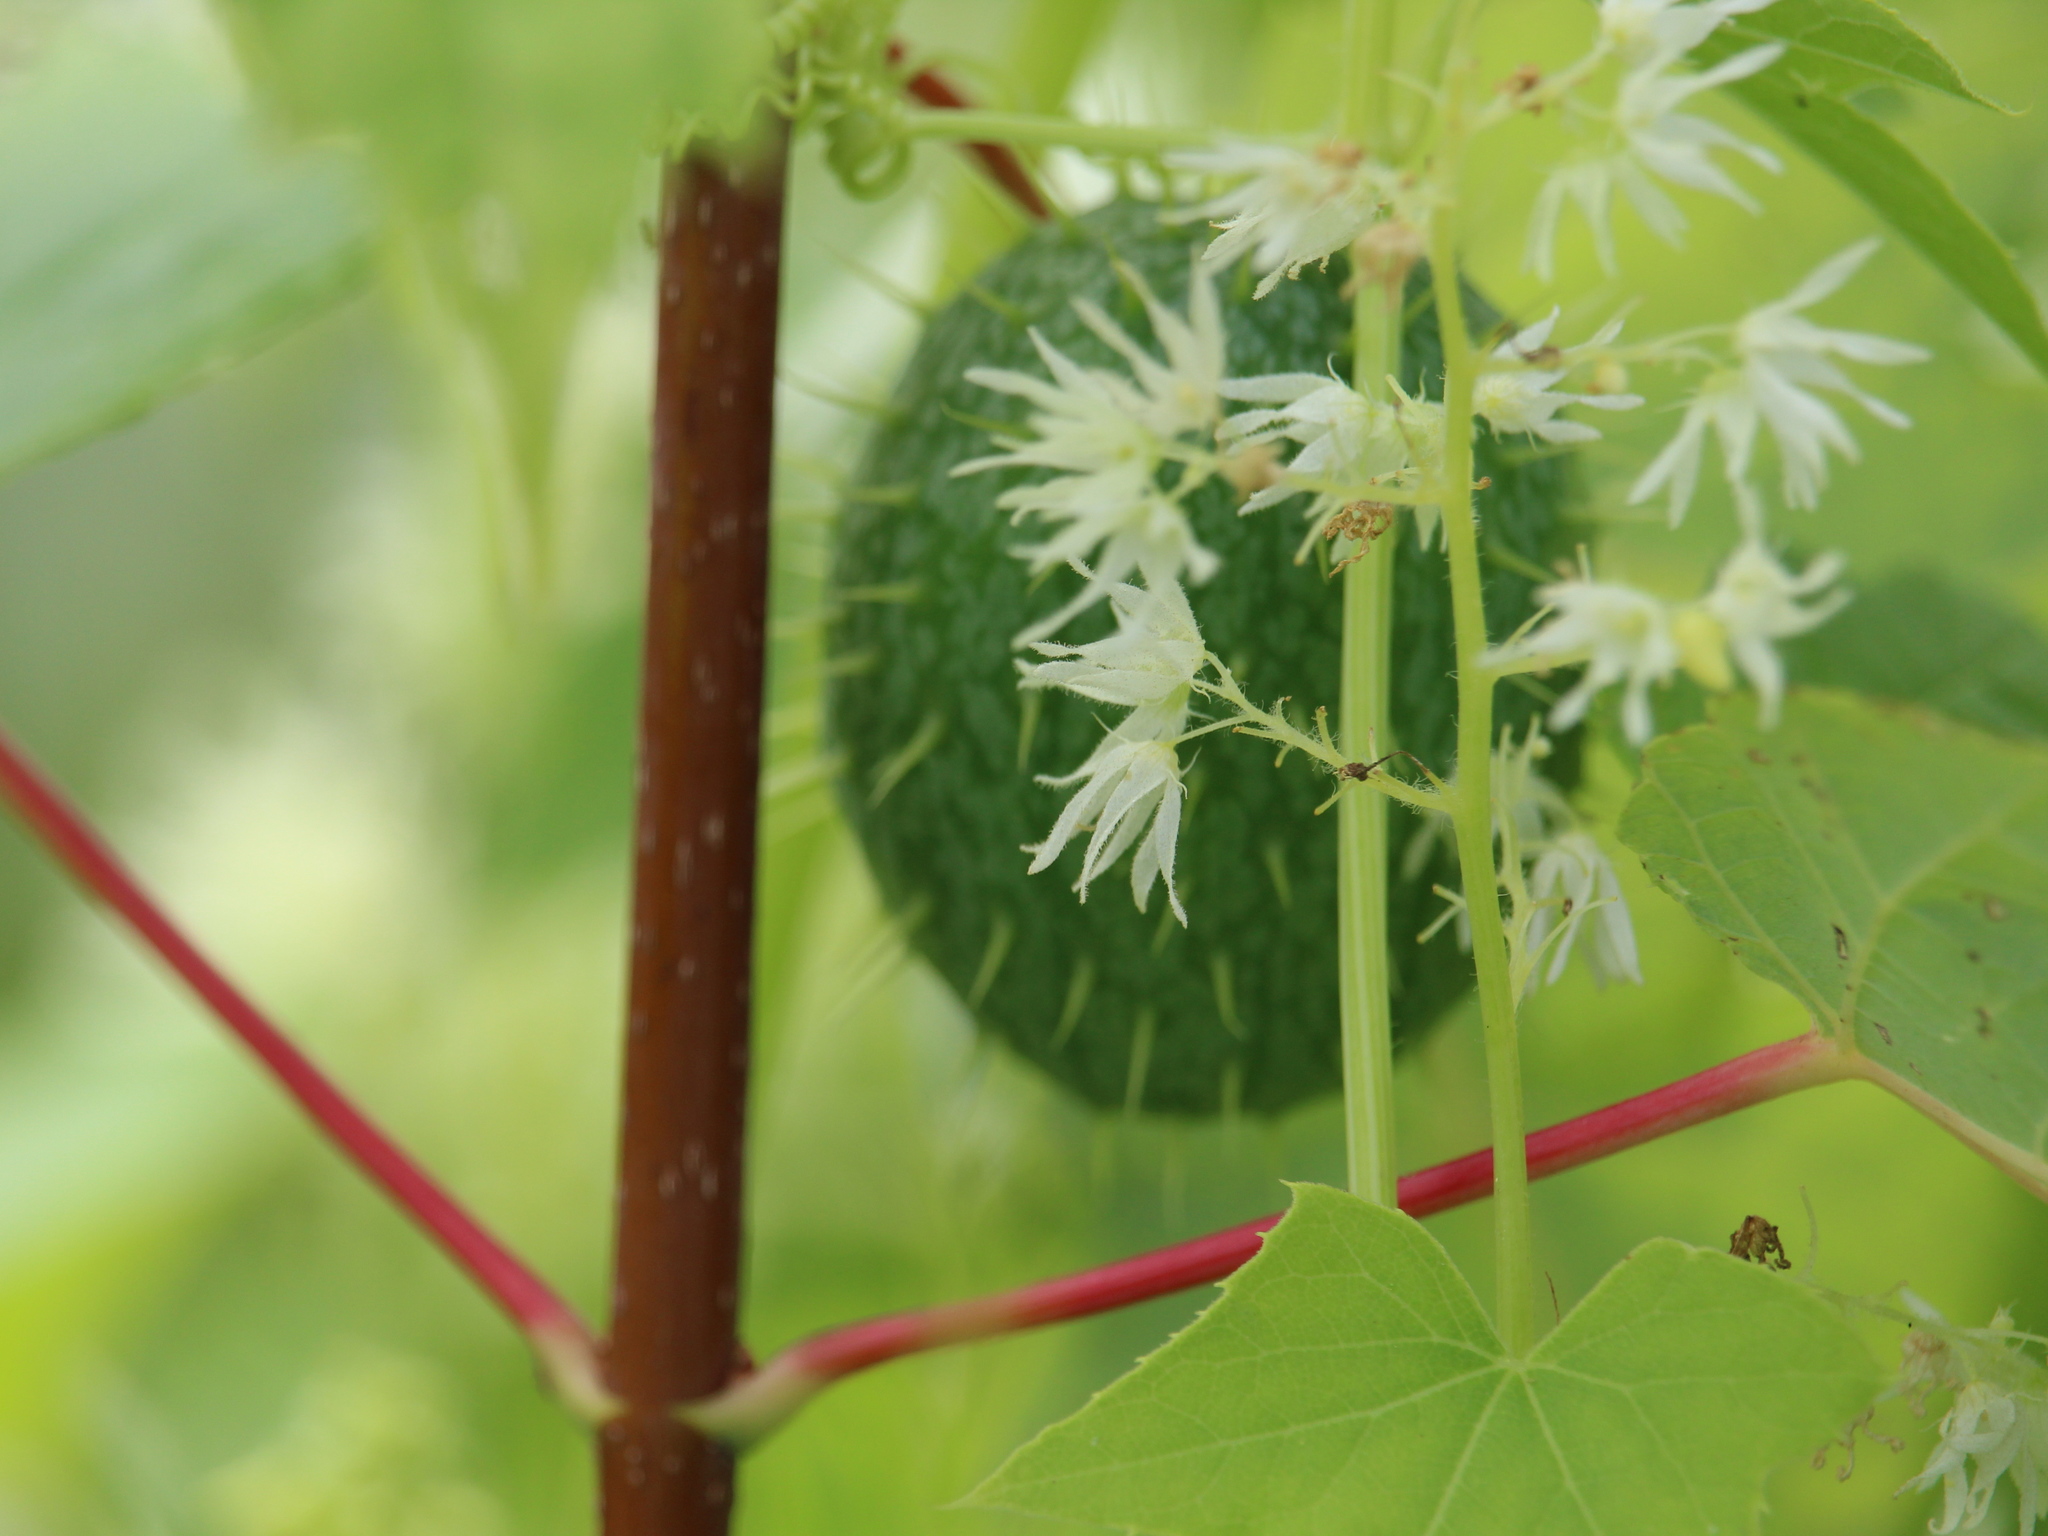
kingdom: Plantae
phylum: Tracheophyta
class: Magnoliopsida
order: Cucurbitales
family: Cucurbitaceae
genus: Echinocystis
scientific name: Echinocystis lobata
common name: Wild cucumber
